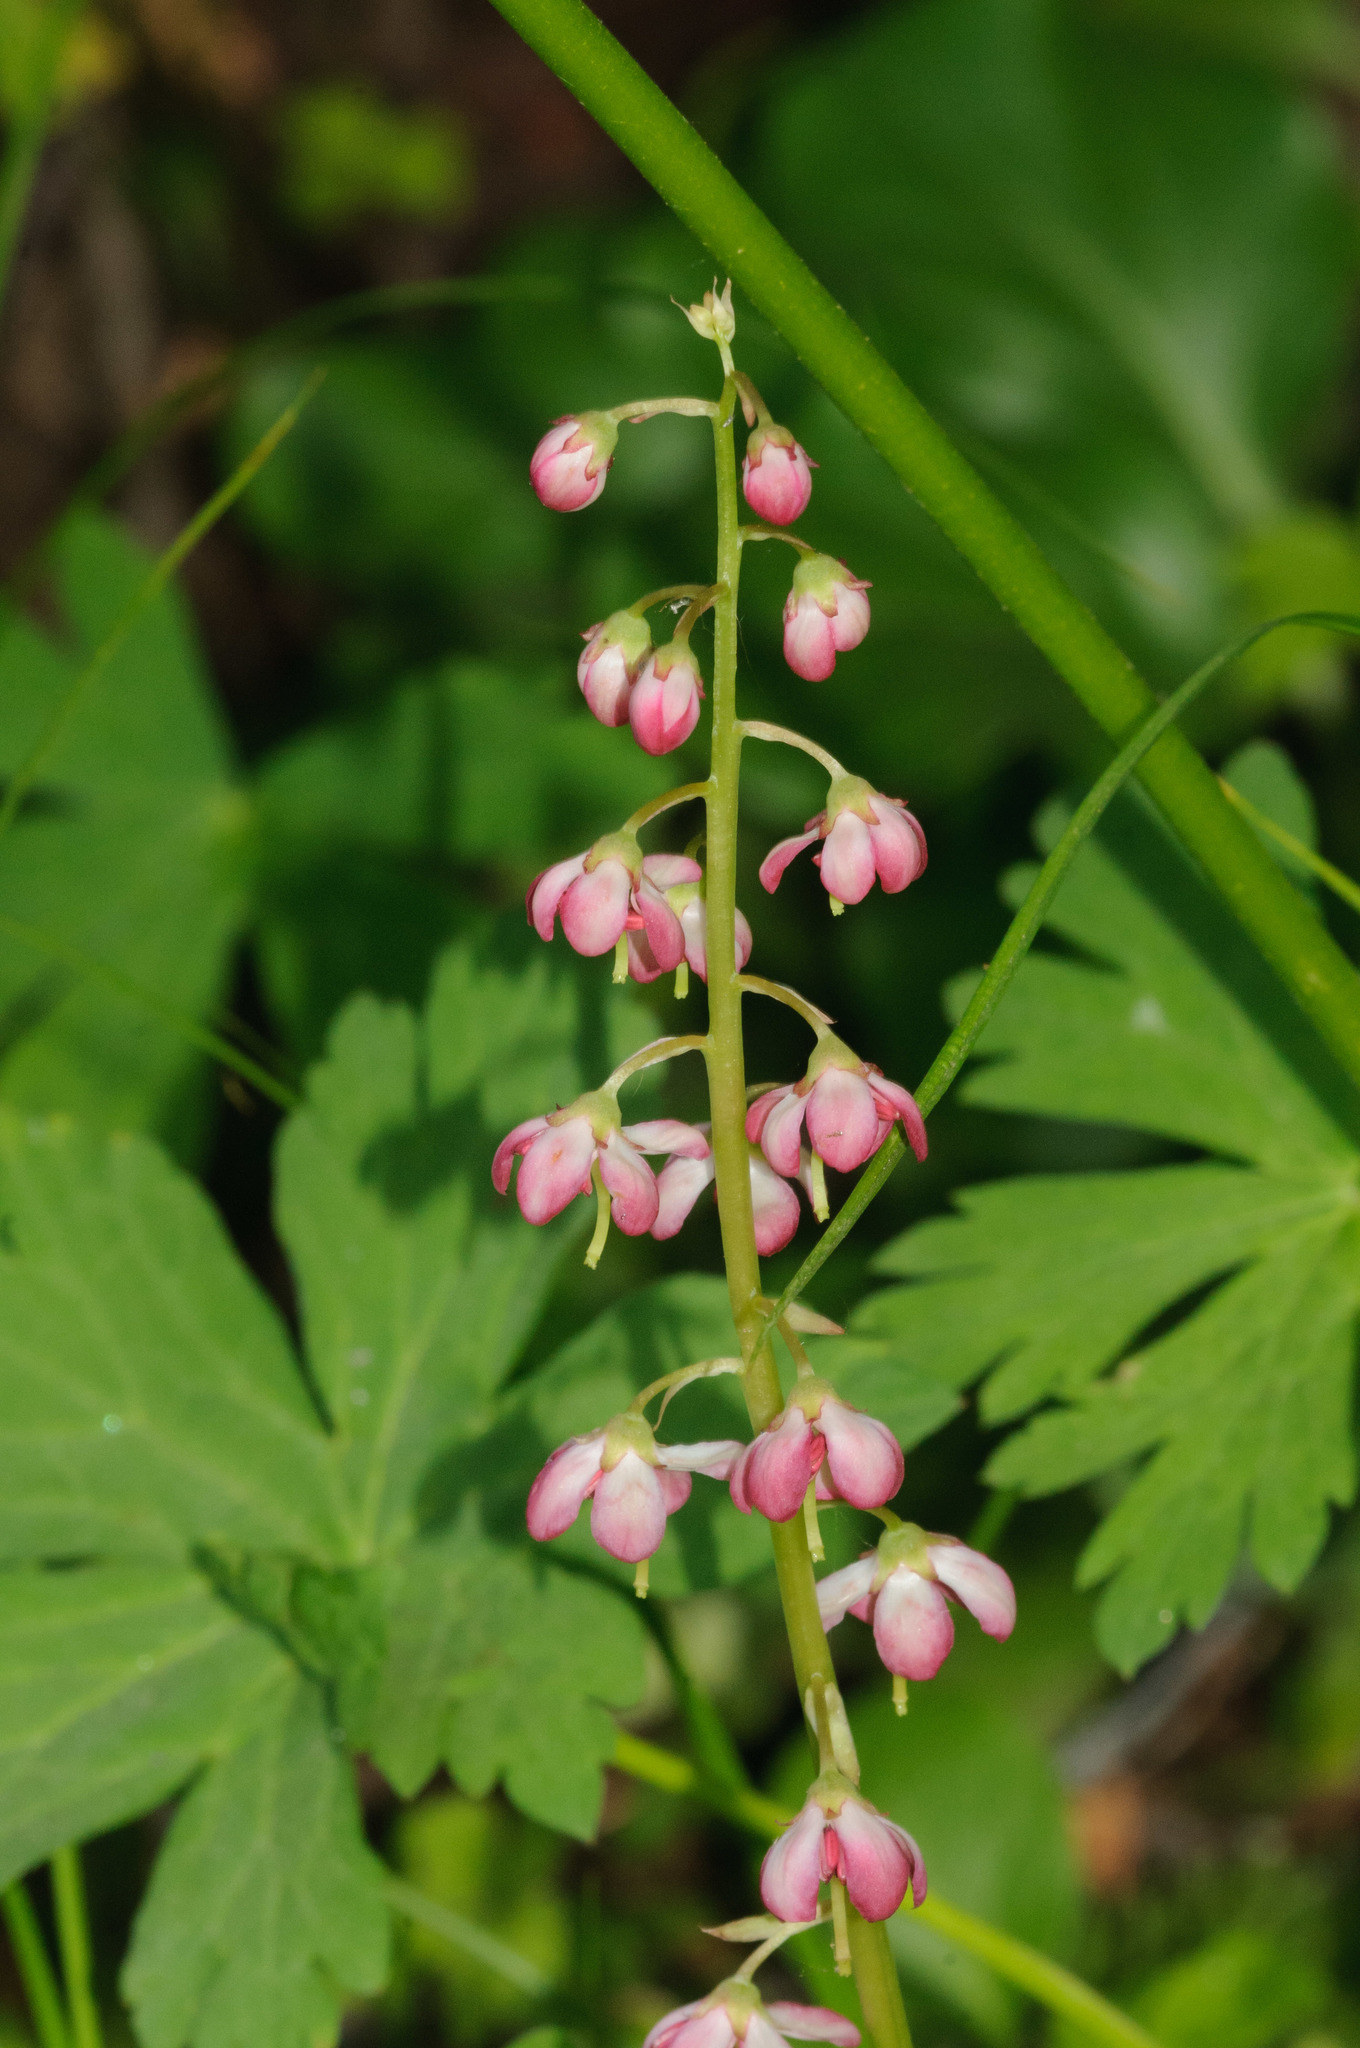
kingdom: Plantae
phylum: Tracheophyta
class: Magnoliopsida
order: Ericales
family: Ericaceae
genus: Pyrola
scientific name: Pyrola asarifolia
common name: Bog wintergreen
